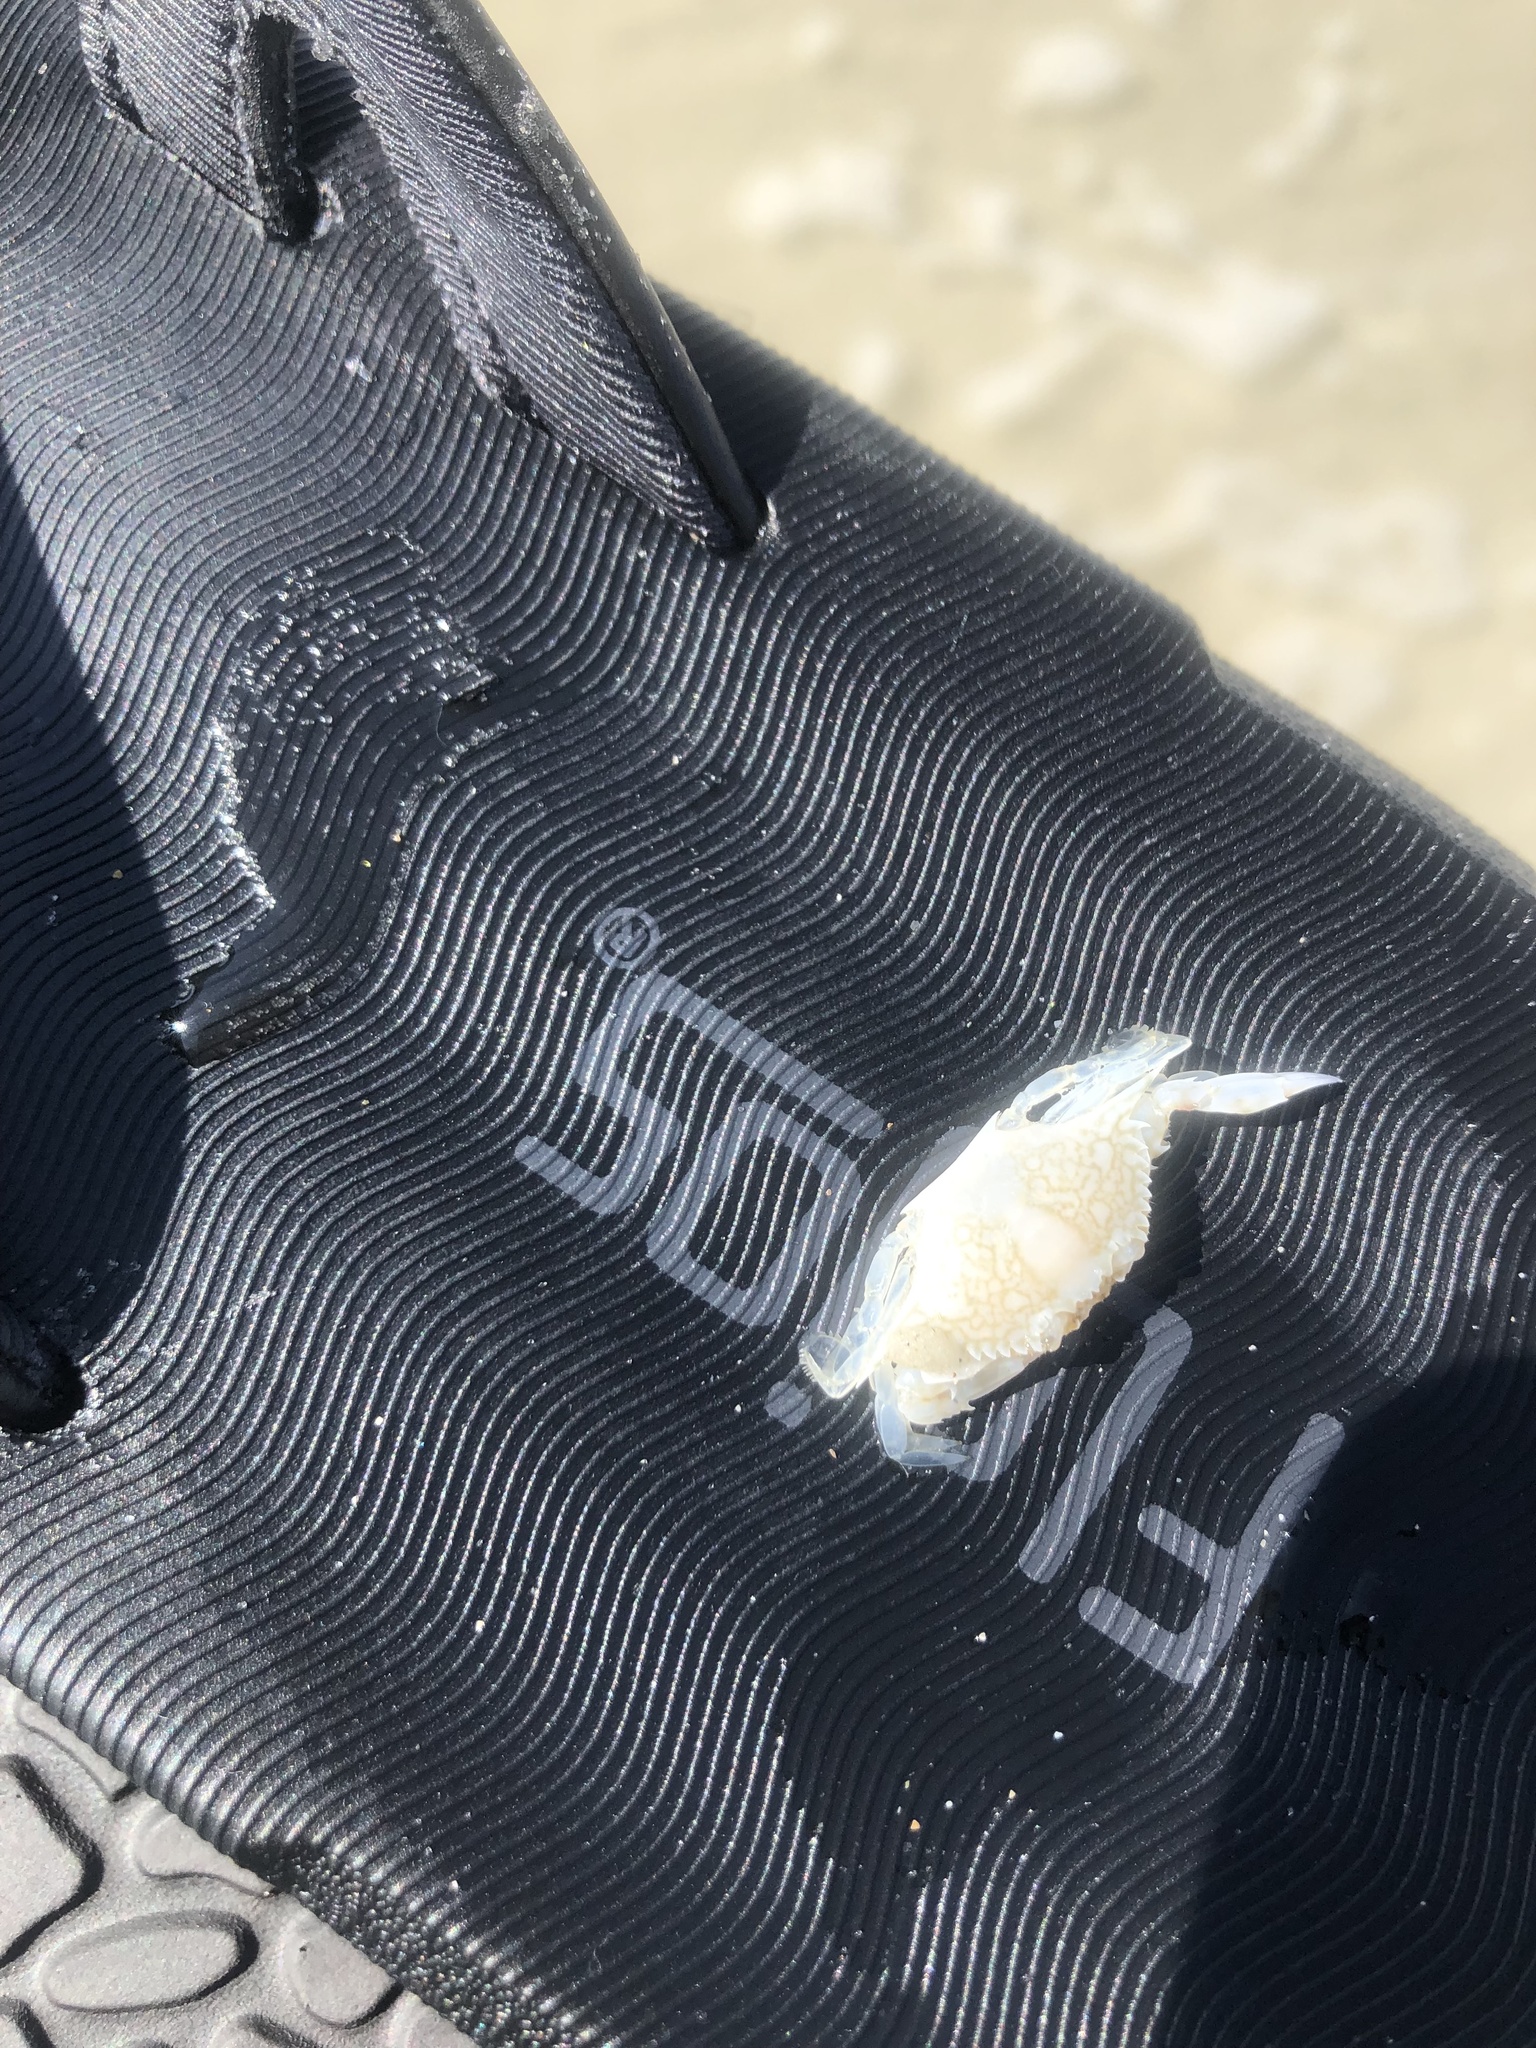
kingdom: Animalia
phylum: Arthropoda
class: Malacostraca
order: Decapoda
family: Portunidae
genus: Arenaeus
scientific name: Arenaeus cribrarius
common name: Speckled crab
